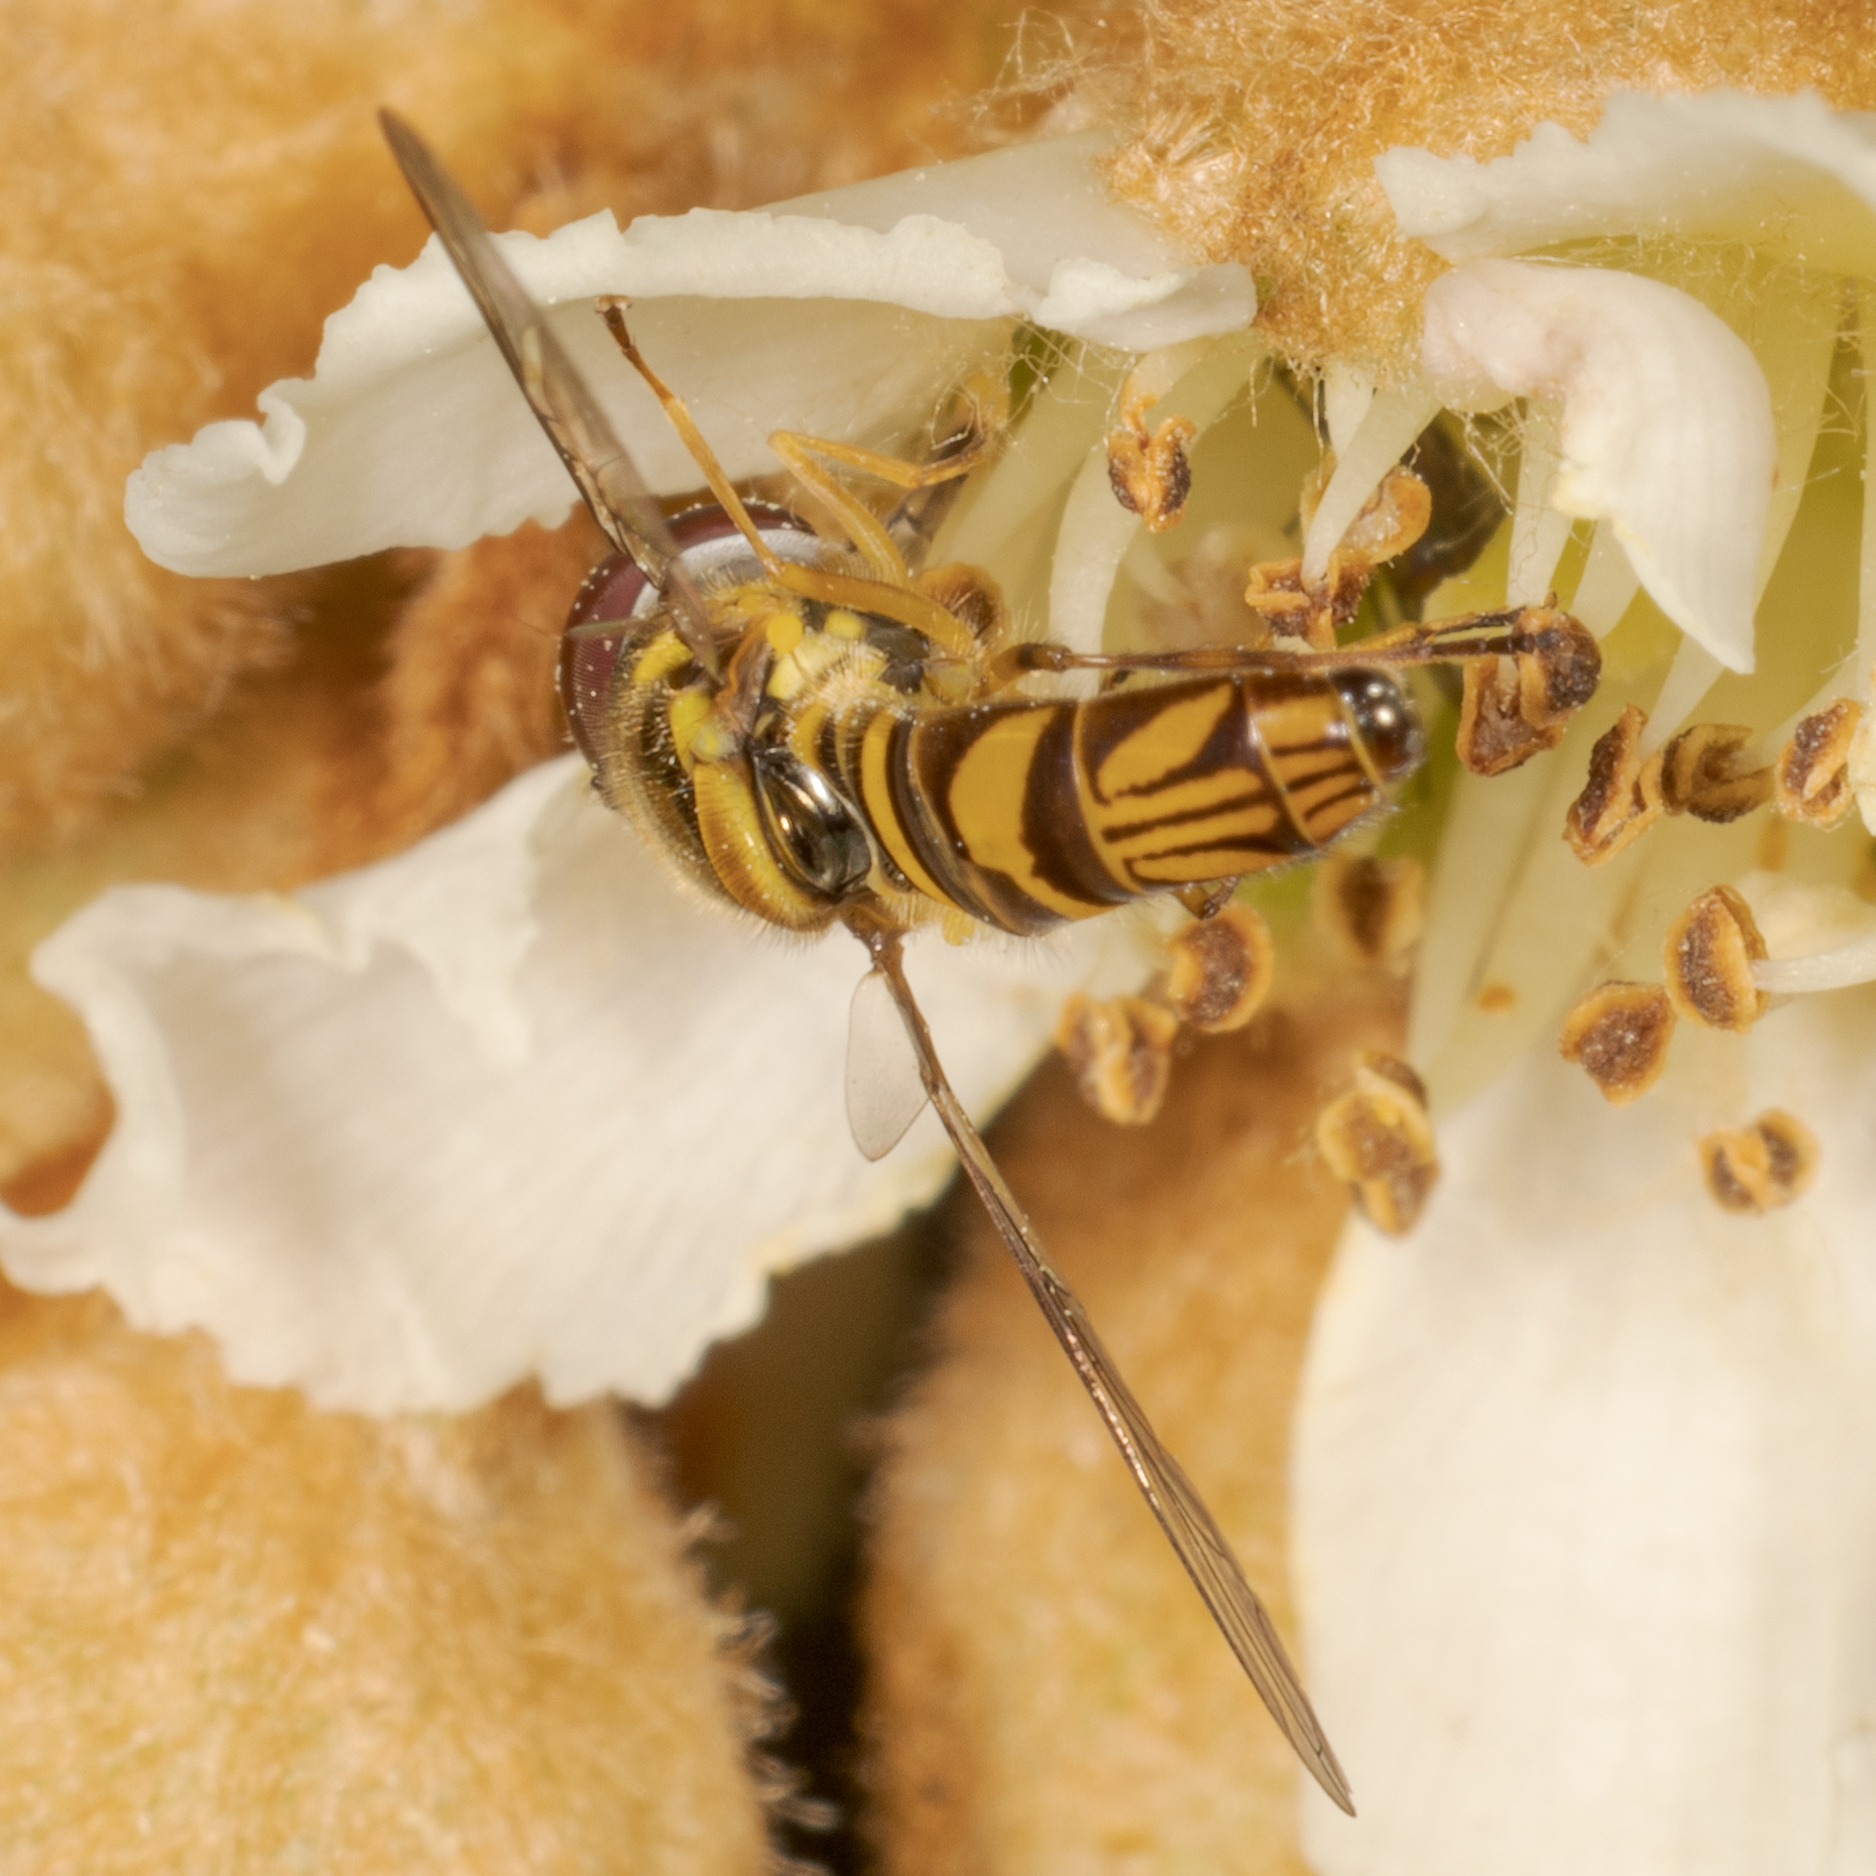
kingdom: Animalia
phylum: Arthropoda
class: Insecta
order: Diptera
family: Syrphidae
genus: Allograpta
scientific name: Allograpta obliqua
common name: Common oblique syrphid
